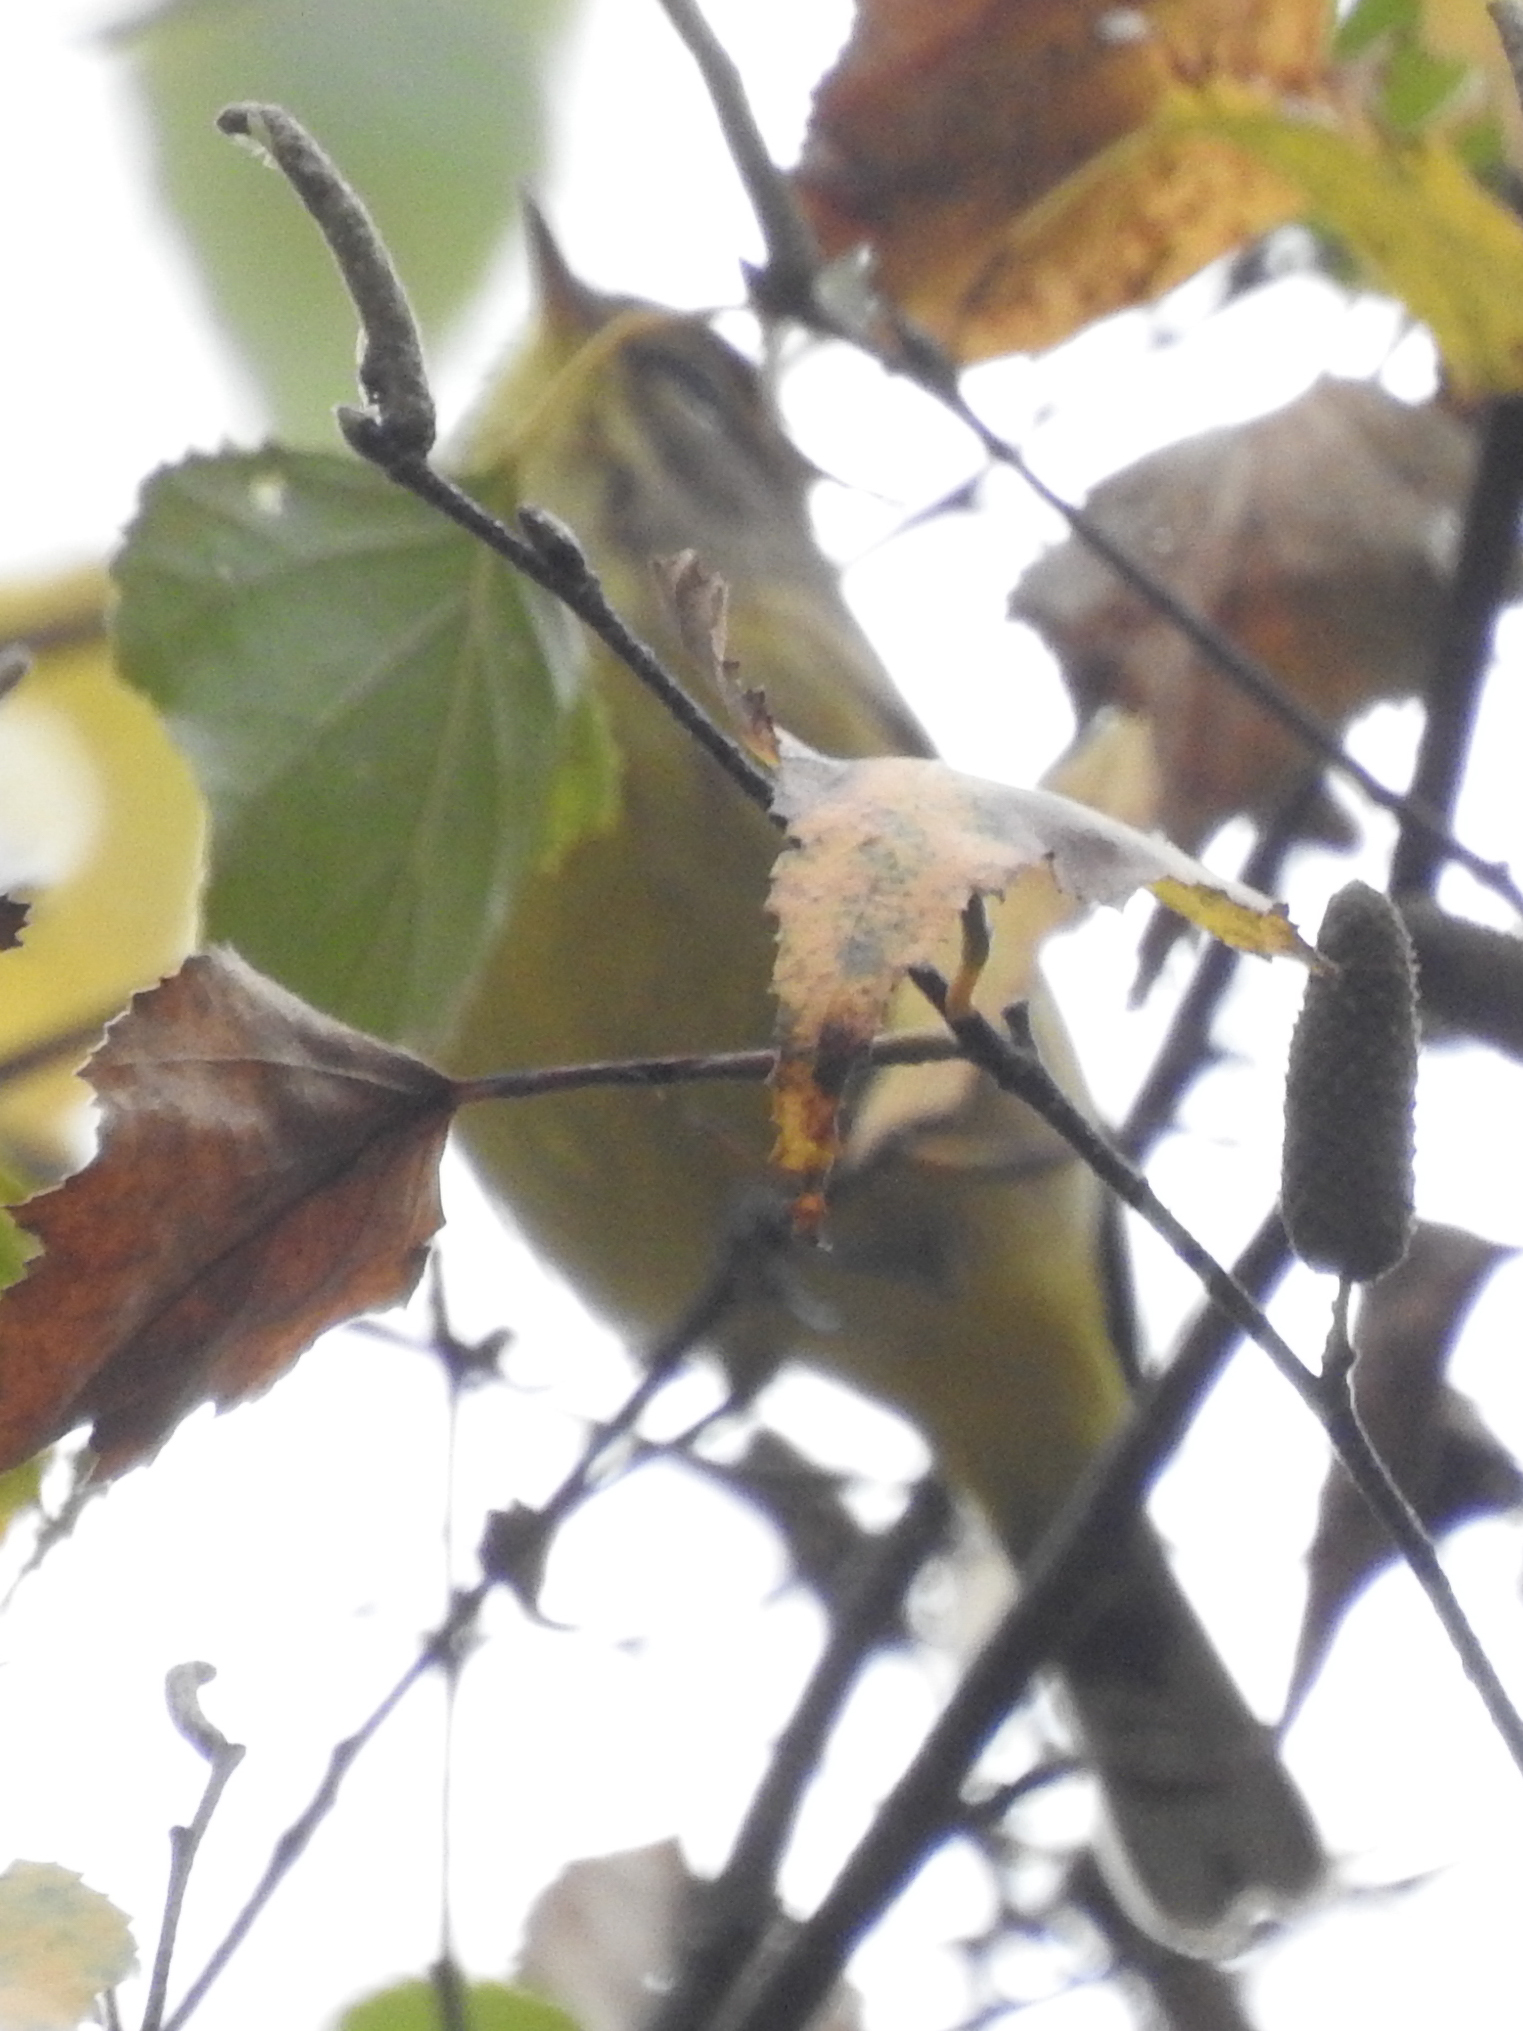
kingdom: Animalia
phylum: Chordata
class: Aves
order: Passeriformes
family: Parulidae
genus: Setophaga
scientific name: Setophaga palmarum
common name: Palm warbler
